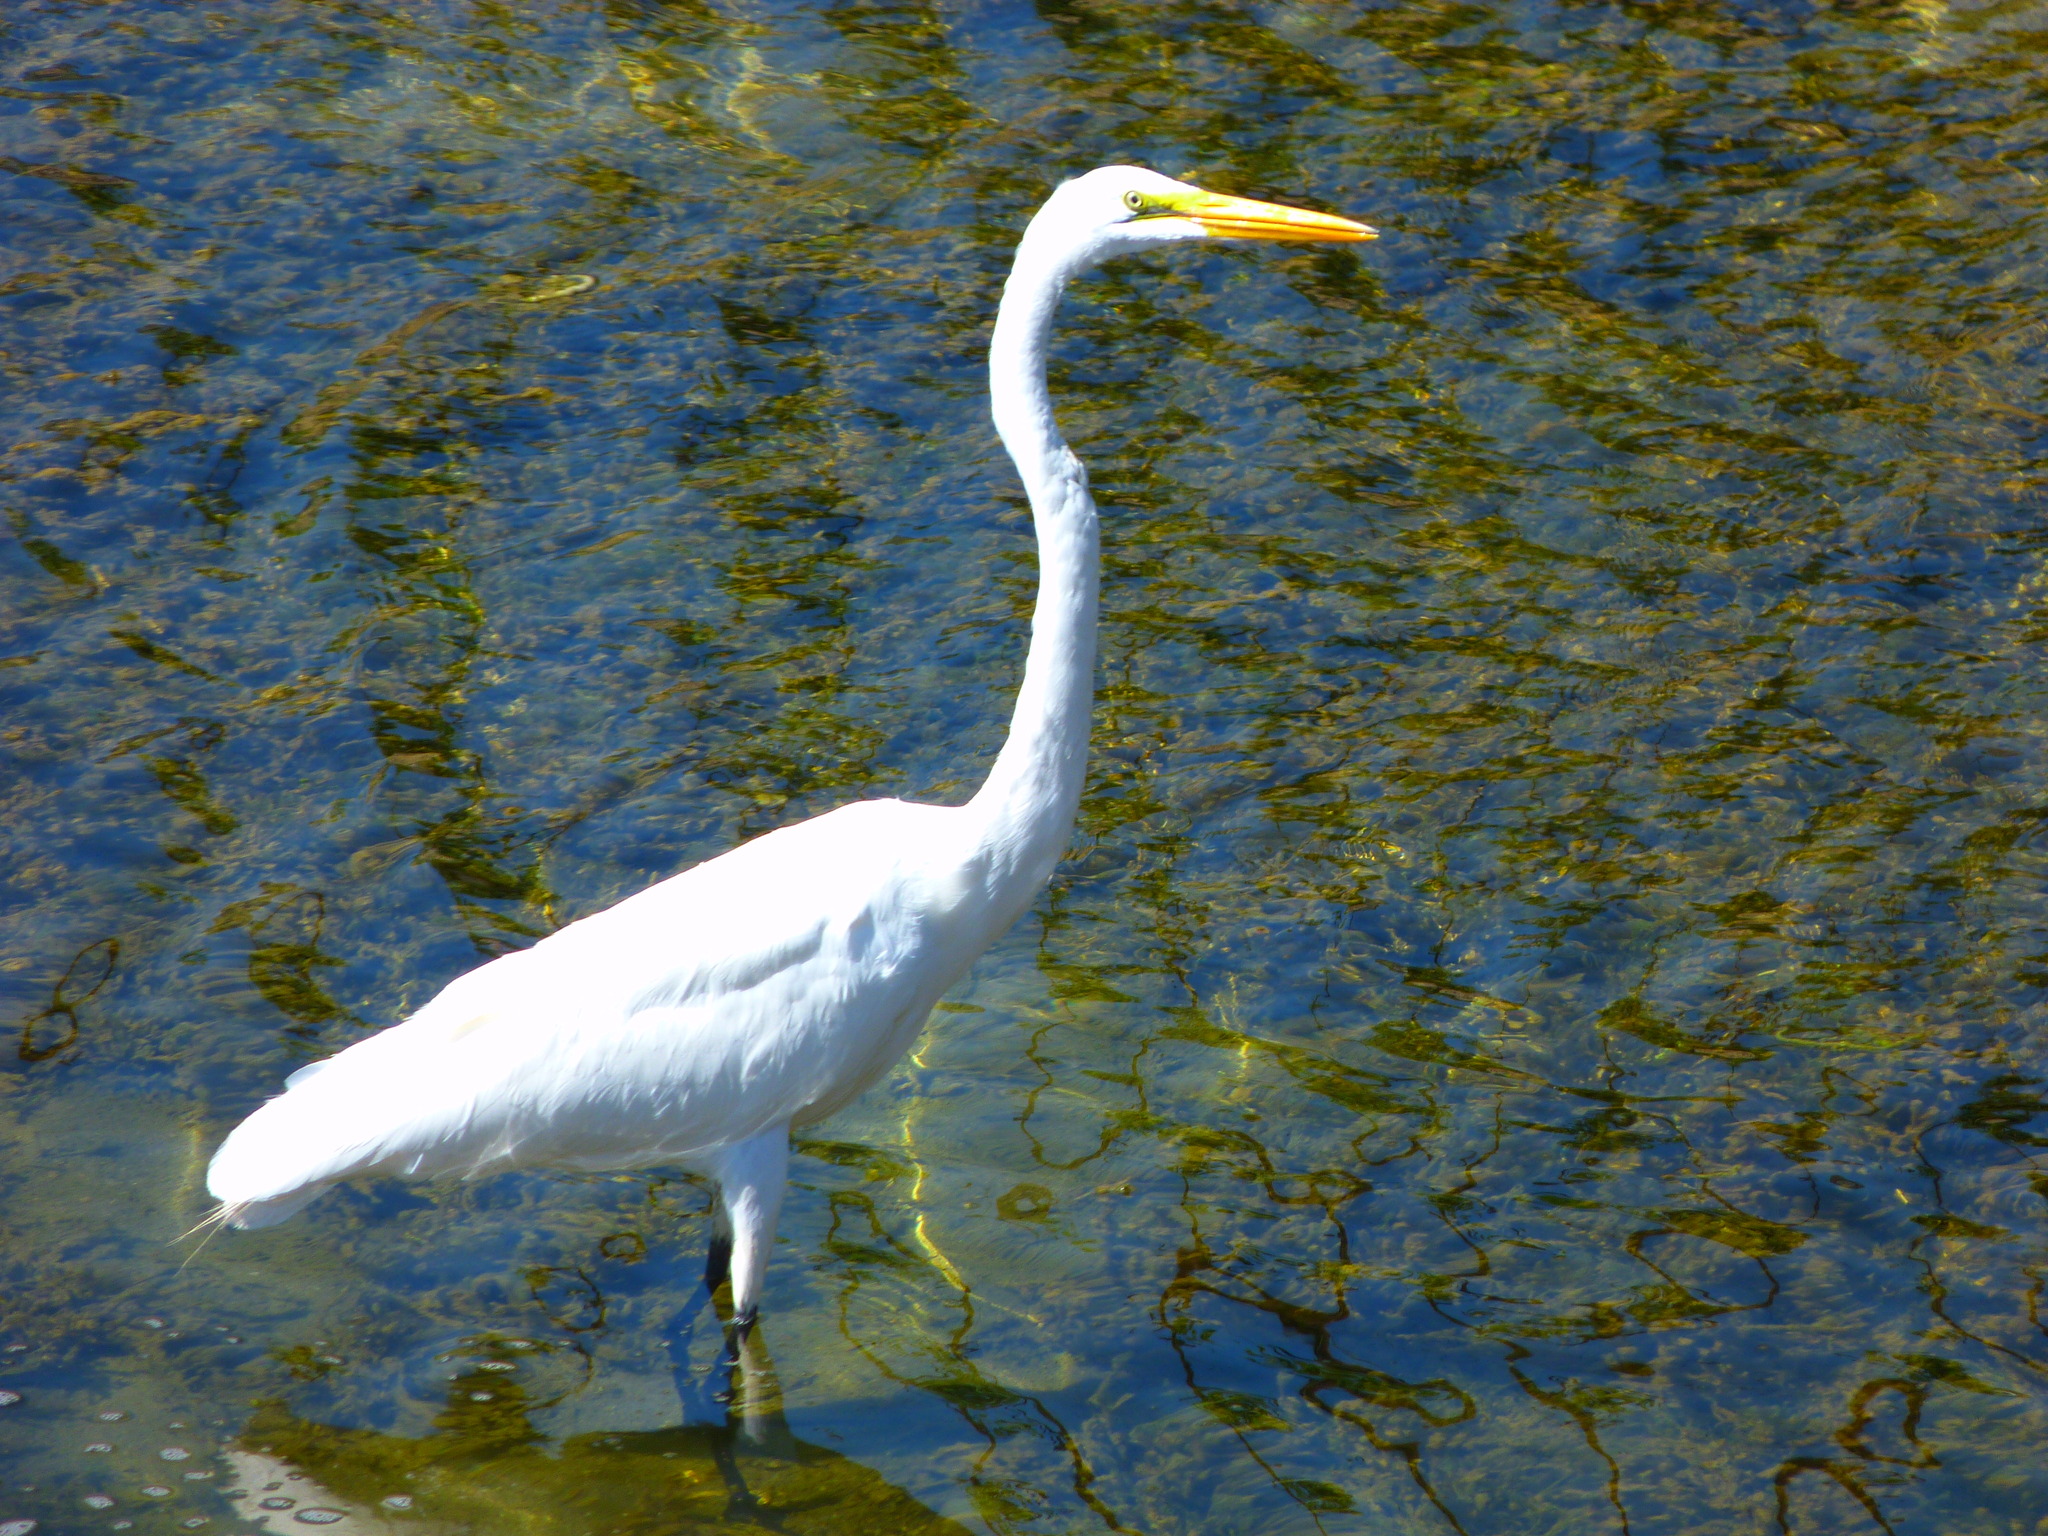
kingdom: Animalia
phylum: Chordata
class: Aves
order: Pelecaniformes
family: Ardeidae
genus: Ardea
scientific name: Ardea alba
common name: Great egret
